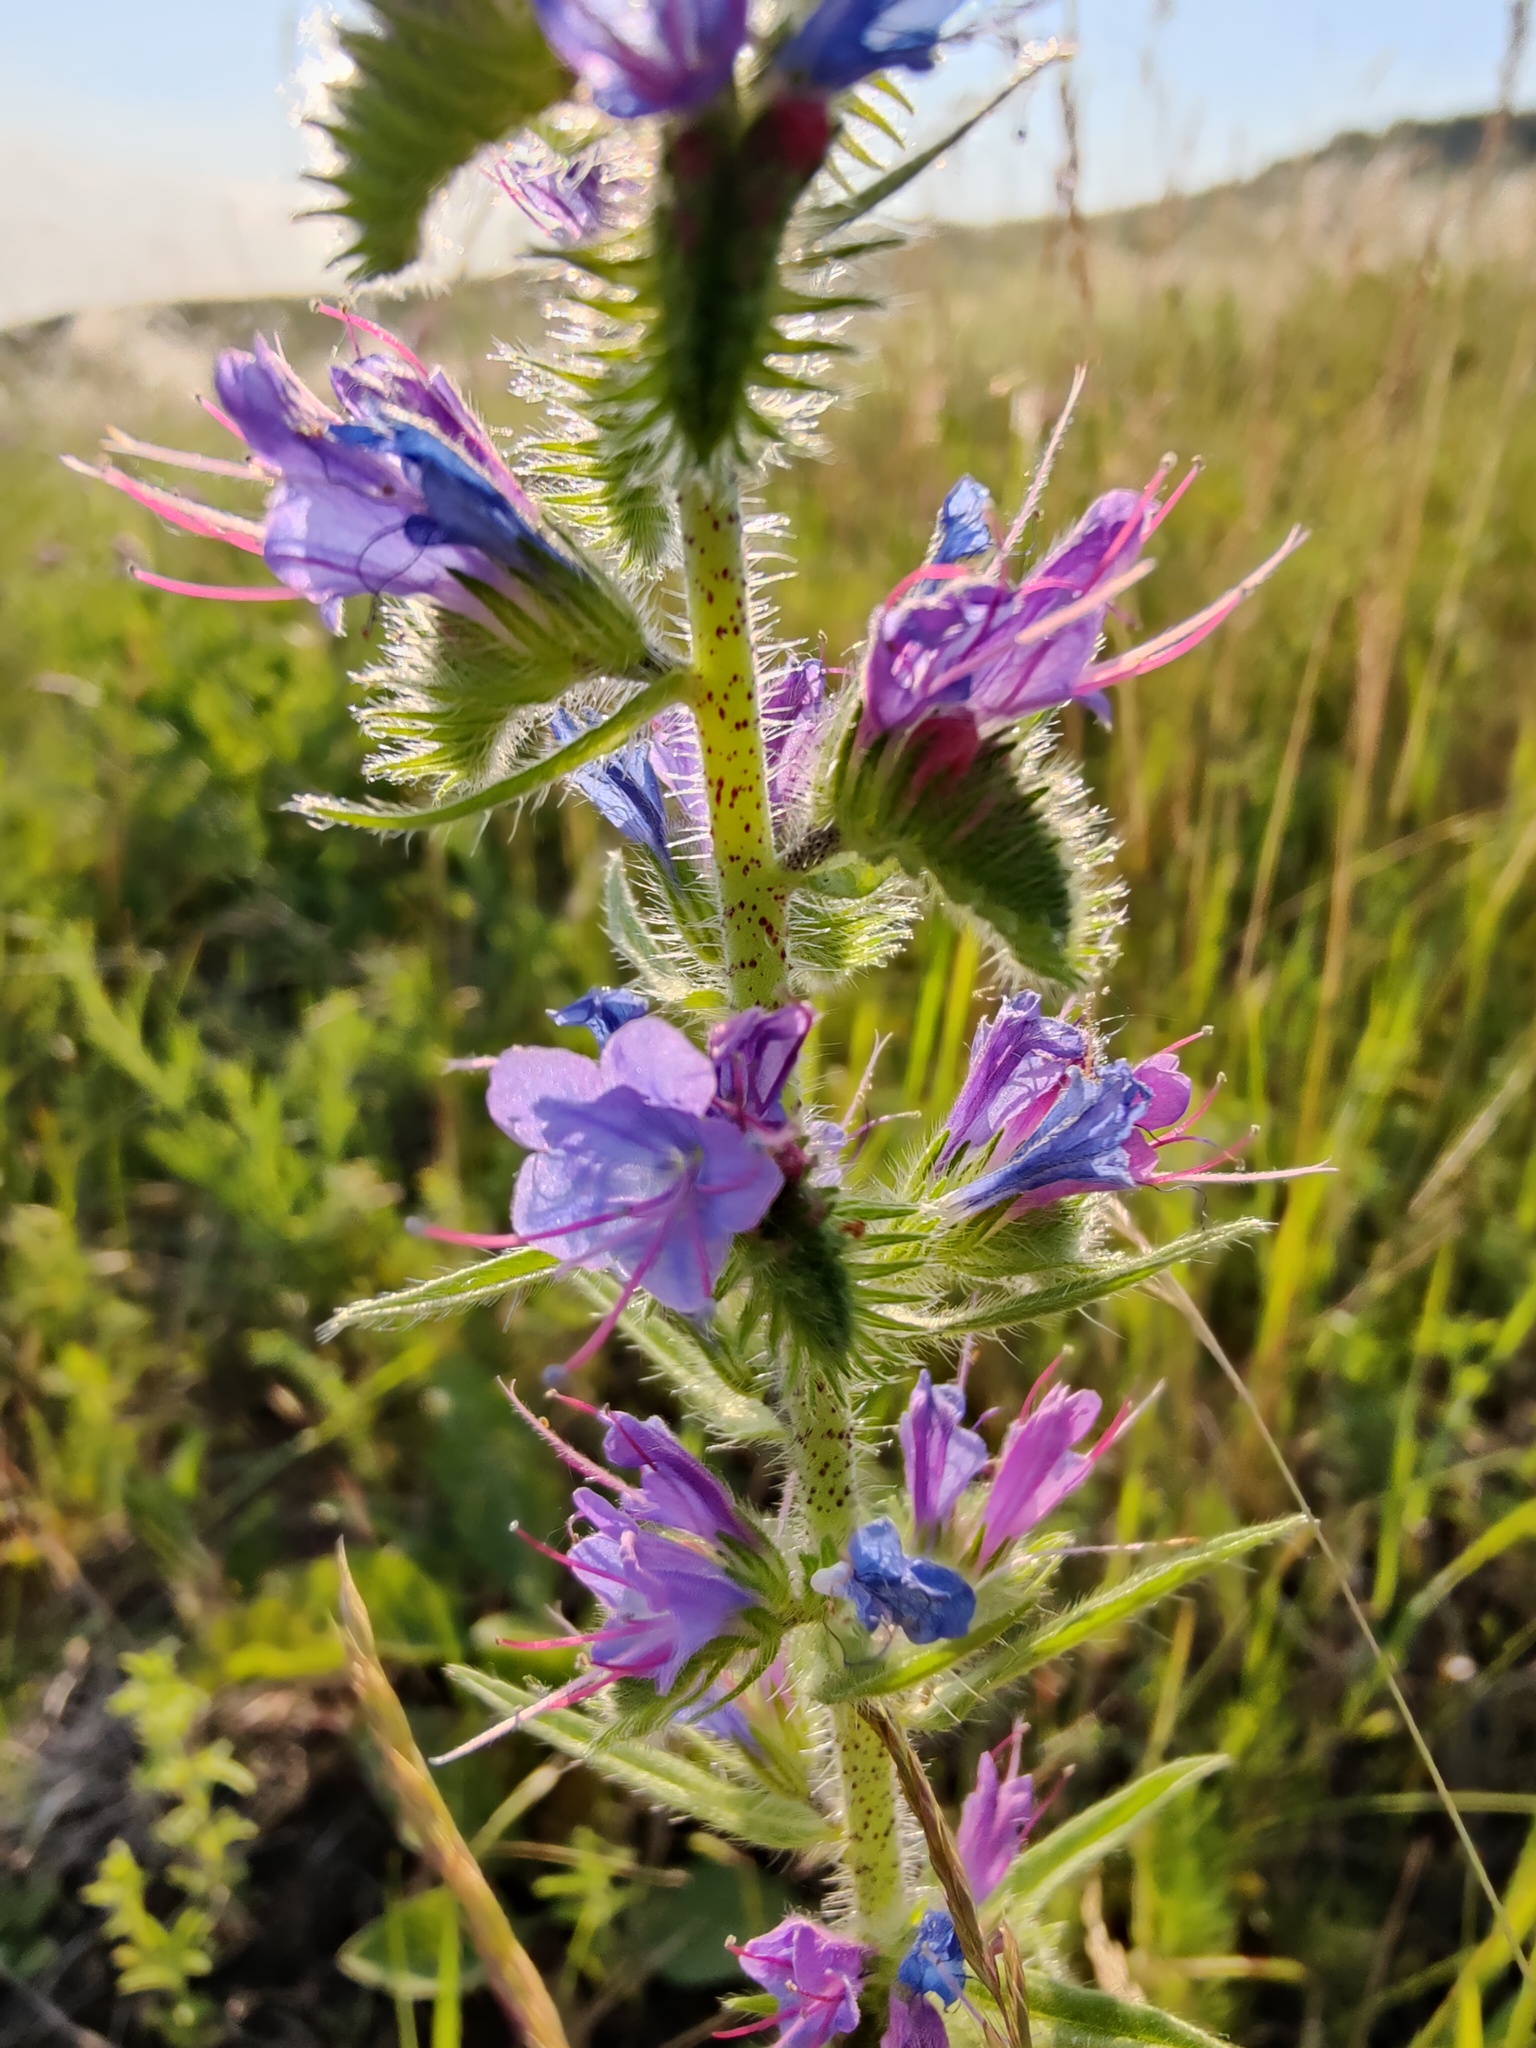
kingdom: Plantae
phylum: Tracheophyta
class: Magnoliopsida
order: Boraginales
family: Boraginaceae
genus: Echium
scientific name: Echium vulgare
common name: Common viper's bugloss
